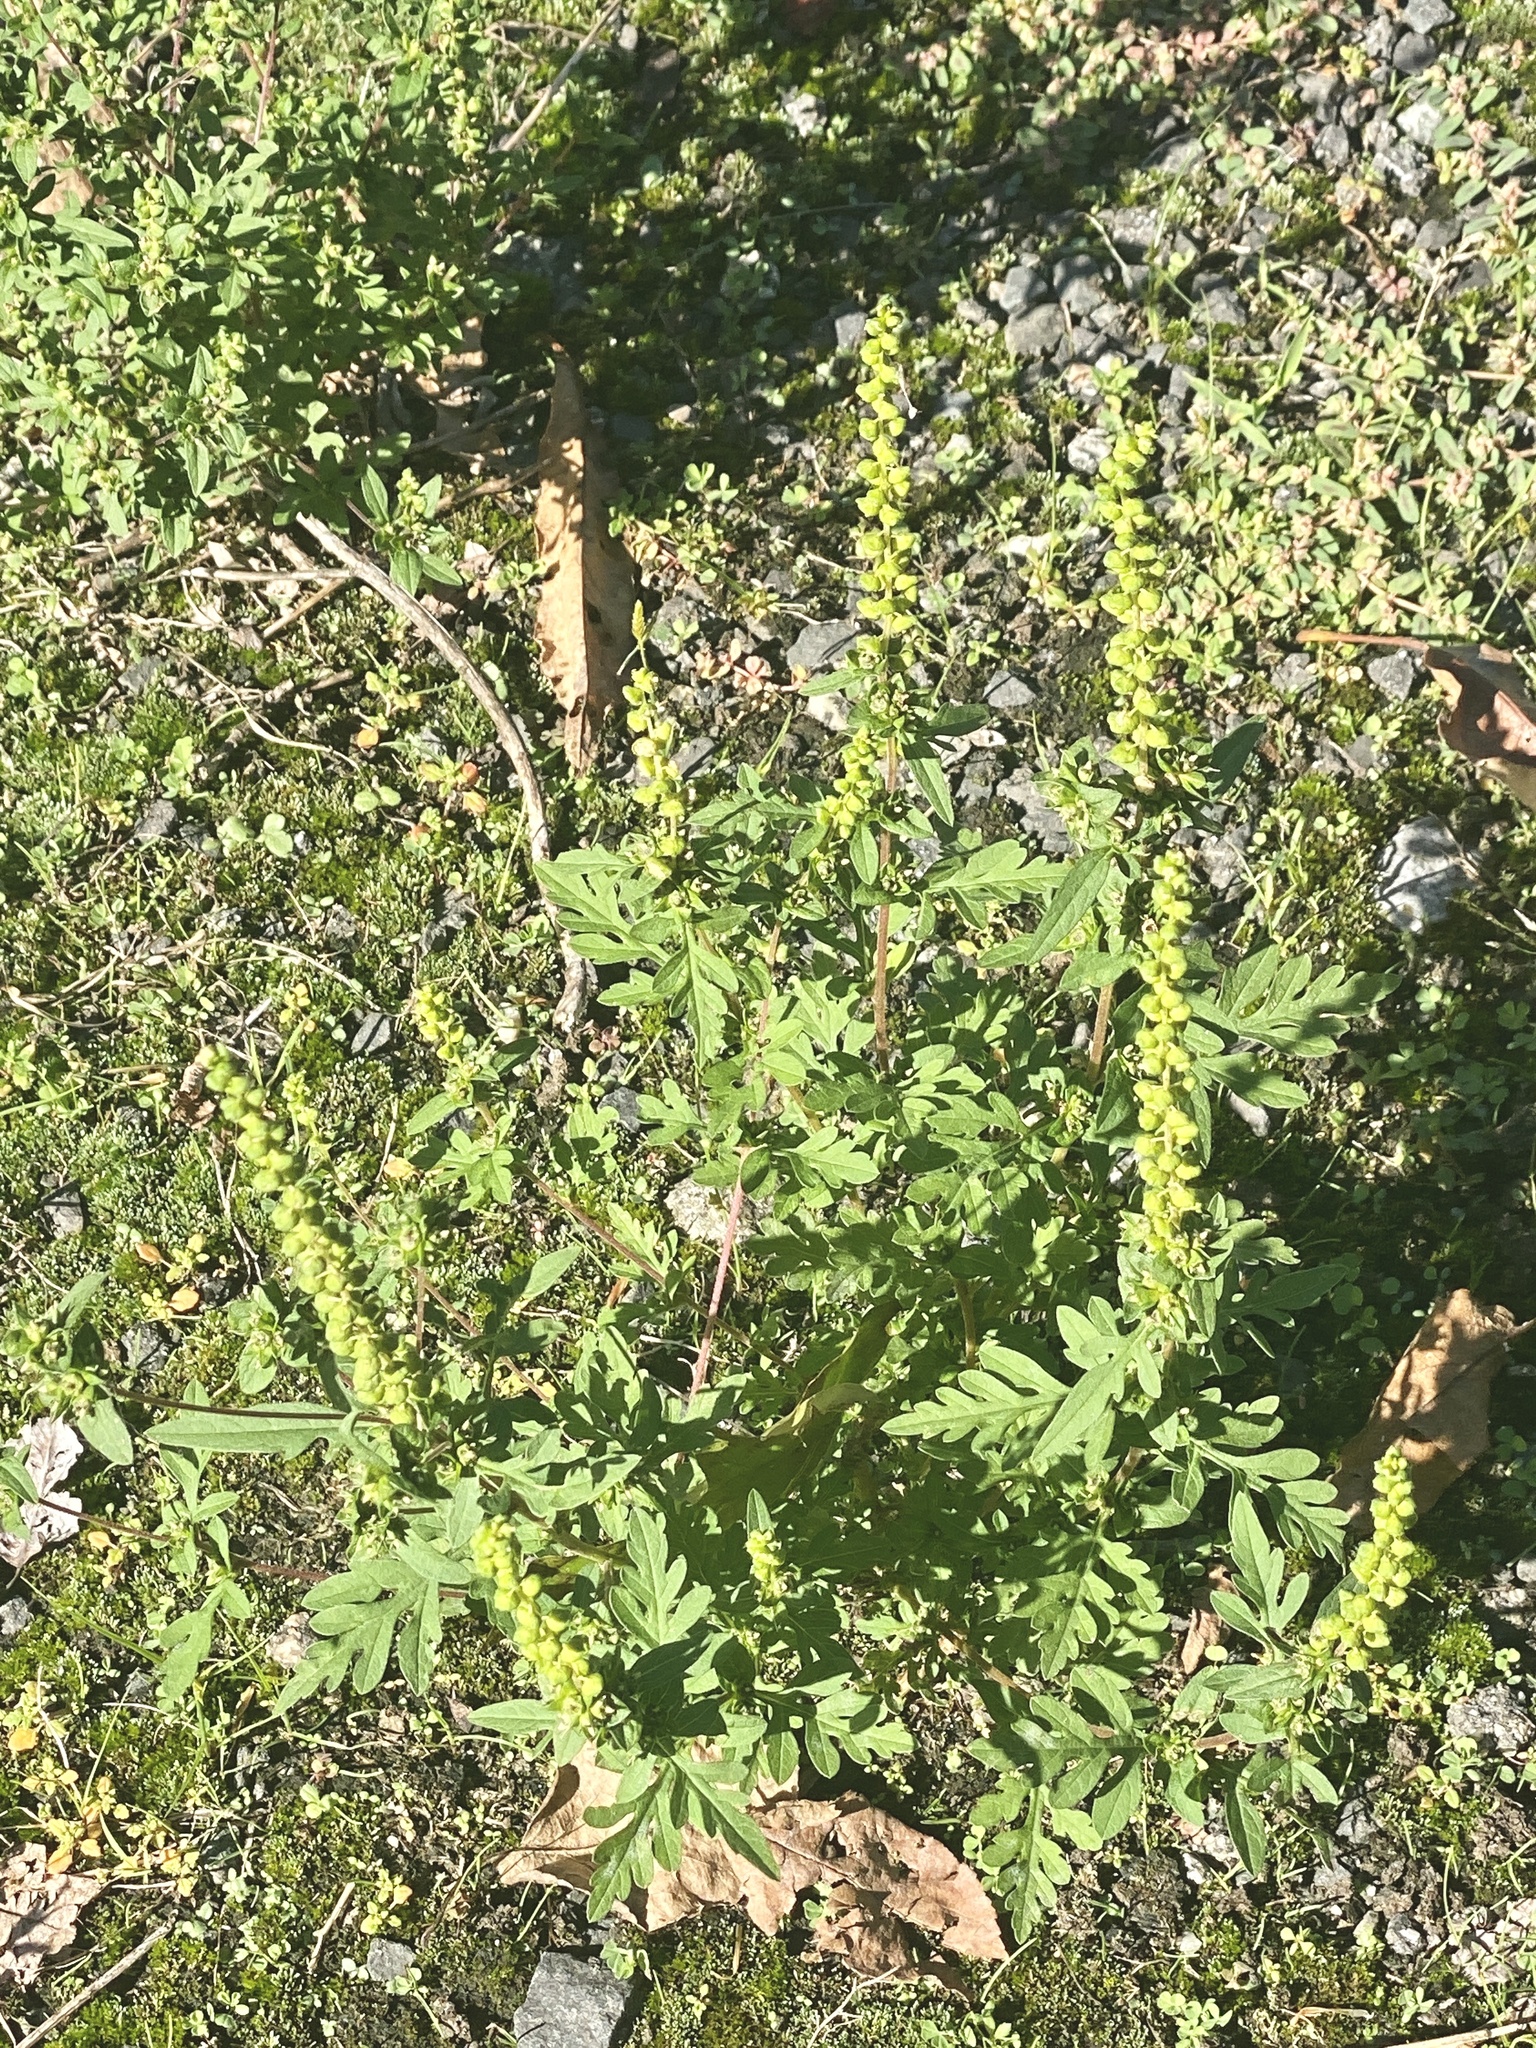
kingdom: Plantae
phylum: Tracheophyta
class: Magnoliopsida
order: Asterales
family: Asteraceae
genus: Ambrosia
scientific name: Ambrosia artemisiifolia
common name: Annual ragweed
